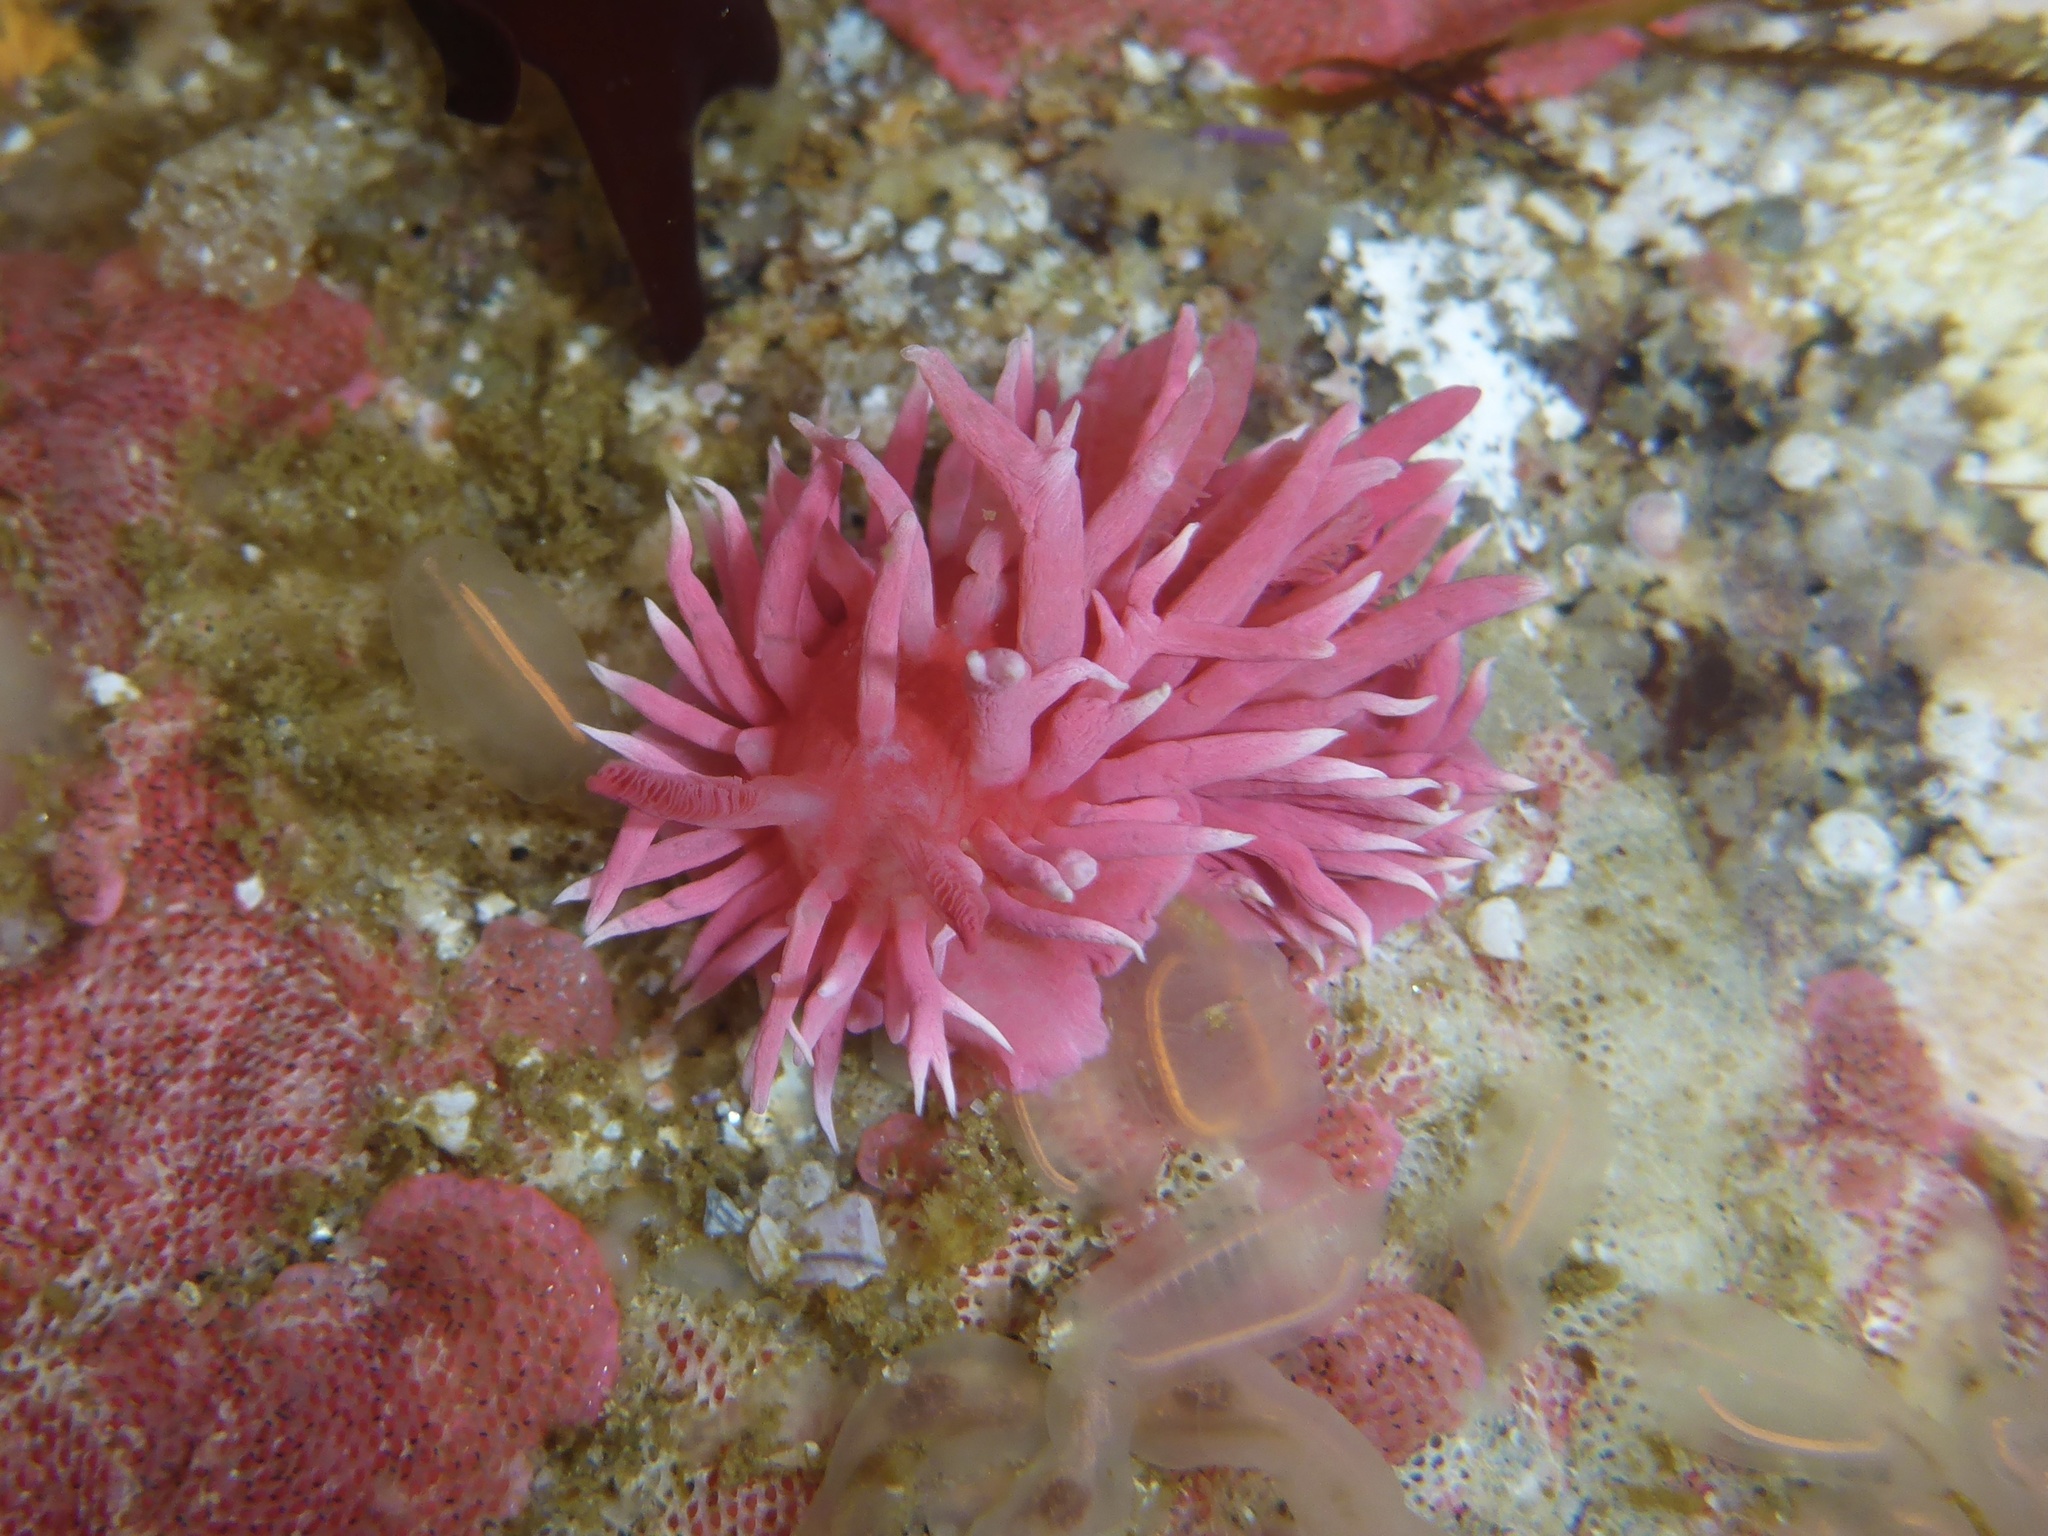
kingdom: Animalia
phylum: Mollusca
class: Gastropoda
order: Nudibranchia
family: Goniodorididae
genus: Okenia
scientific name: Okenia
